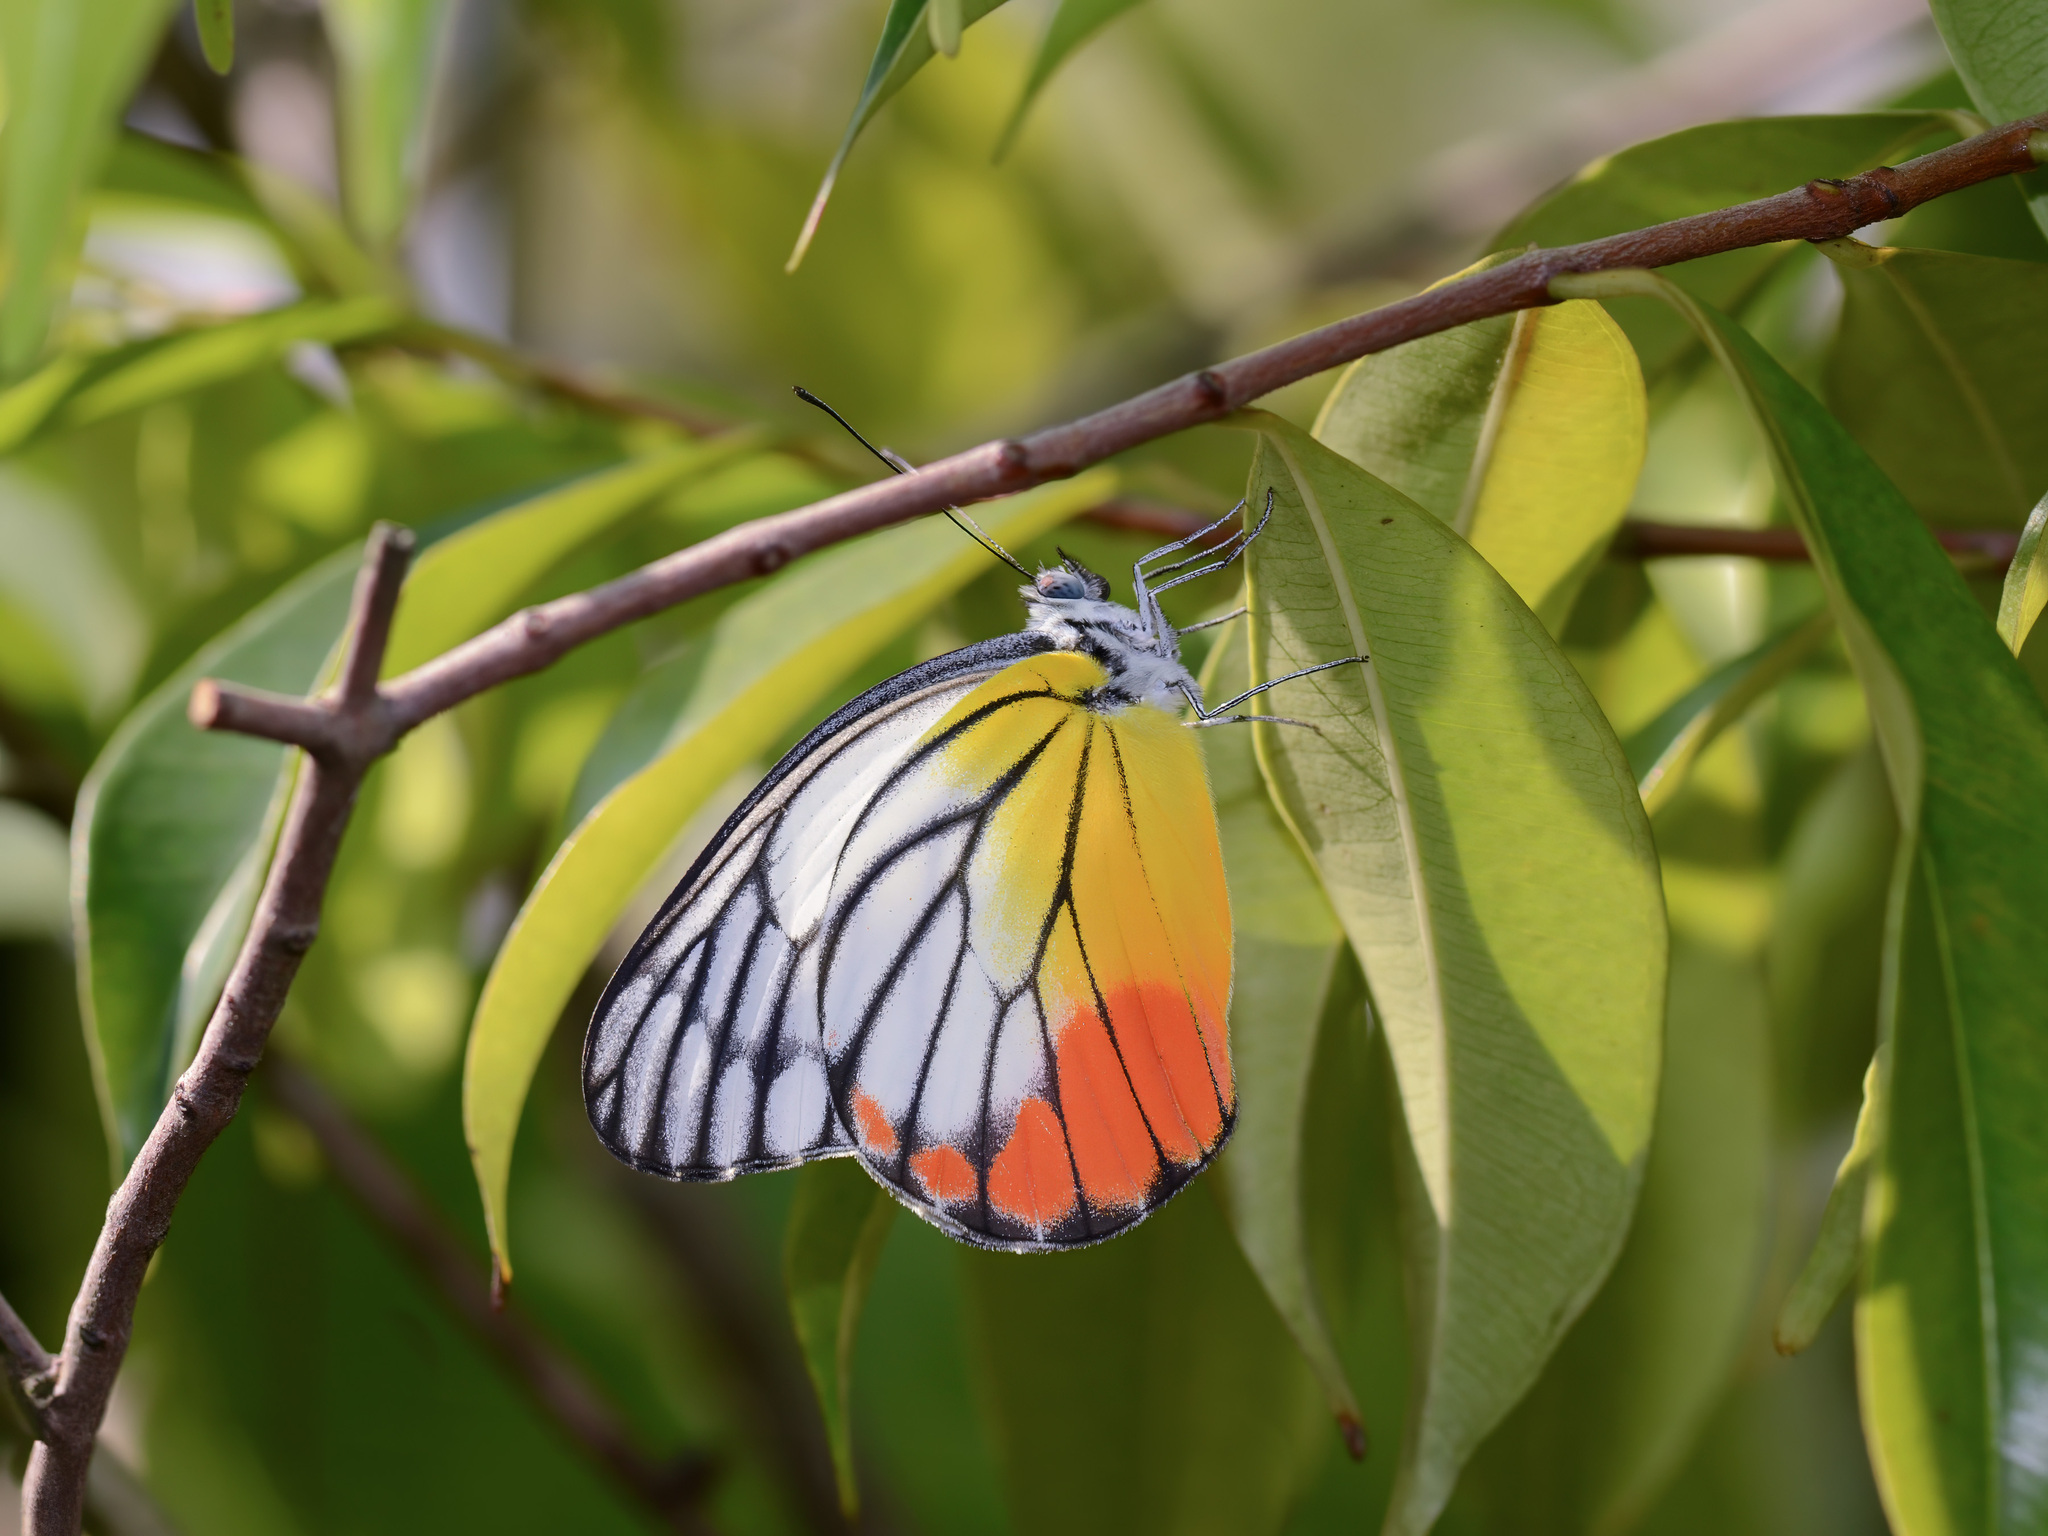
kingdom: Animalia
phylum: Arthropoda
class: Insecta
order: Lepidoptera
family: Pieridae
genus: Delias
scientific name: Delias hyparete
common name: Painted jezebel
